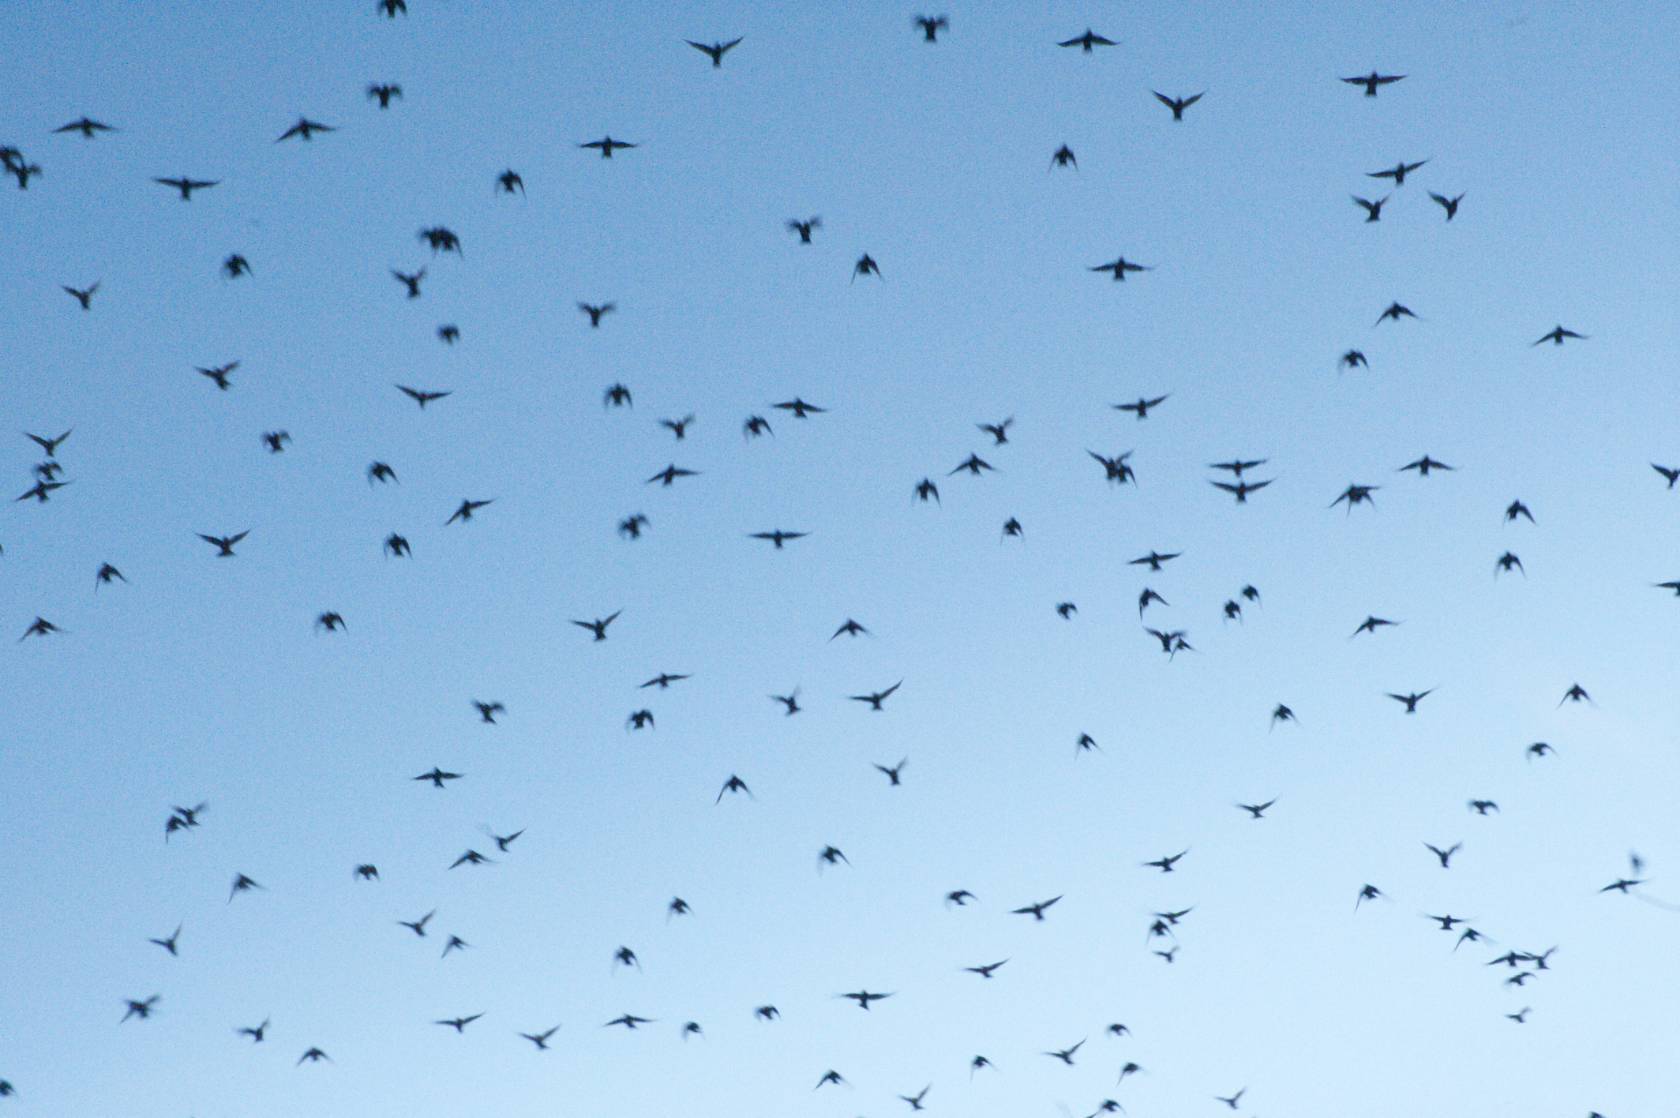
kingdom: Animalia
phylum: Chordata
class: Aves
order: Passeriformes
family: Sturnidae
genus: Sturnus
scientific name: Sturnus vulgaris
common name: Common starling
